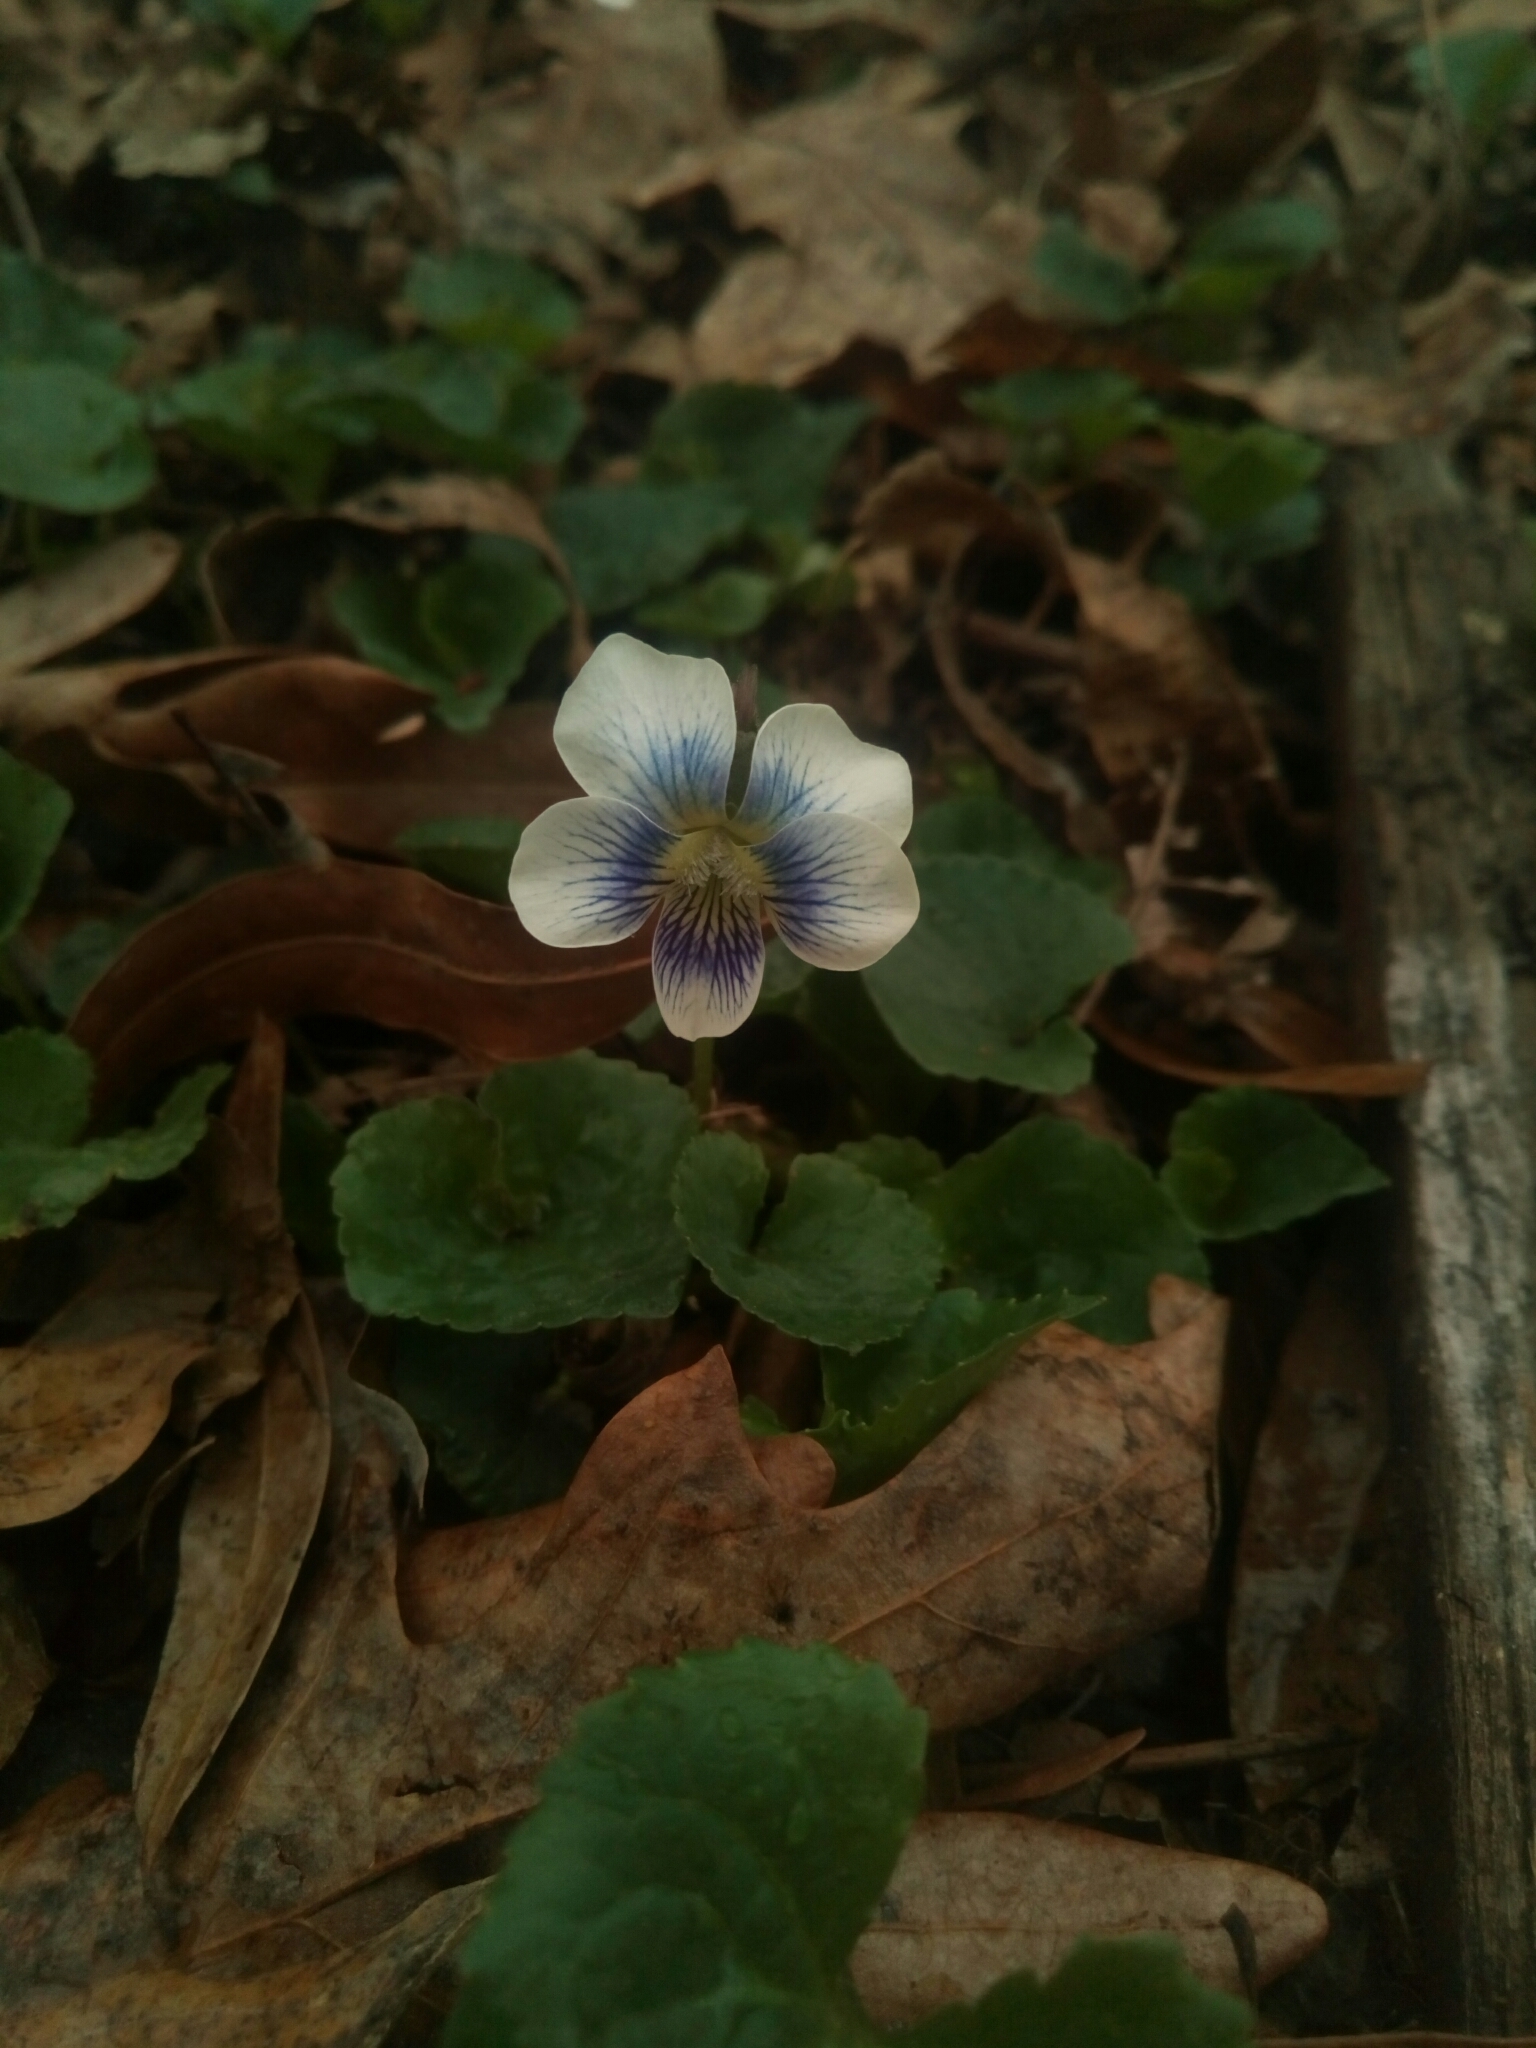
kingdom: Plantae
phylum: Tracheophyta
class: Magnoliopsida
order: Malpighiales
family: Violaceae
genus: Viola
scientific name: Viola sororia
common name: Dooryard violet
